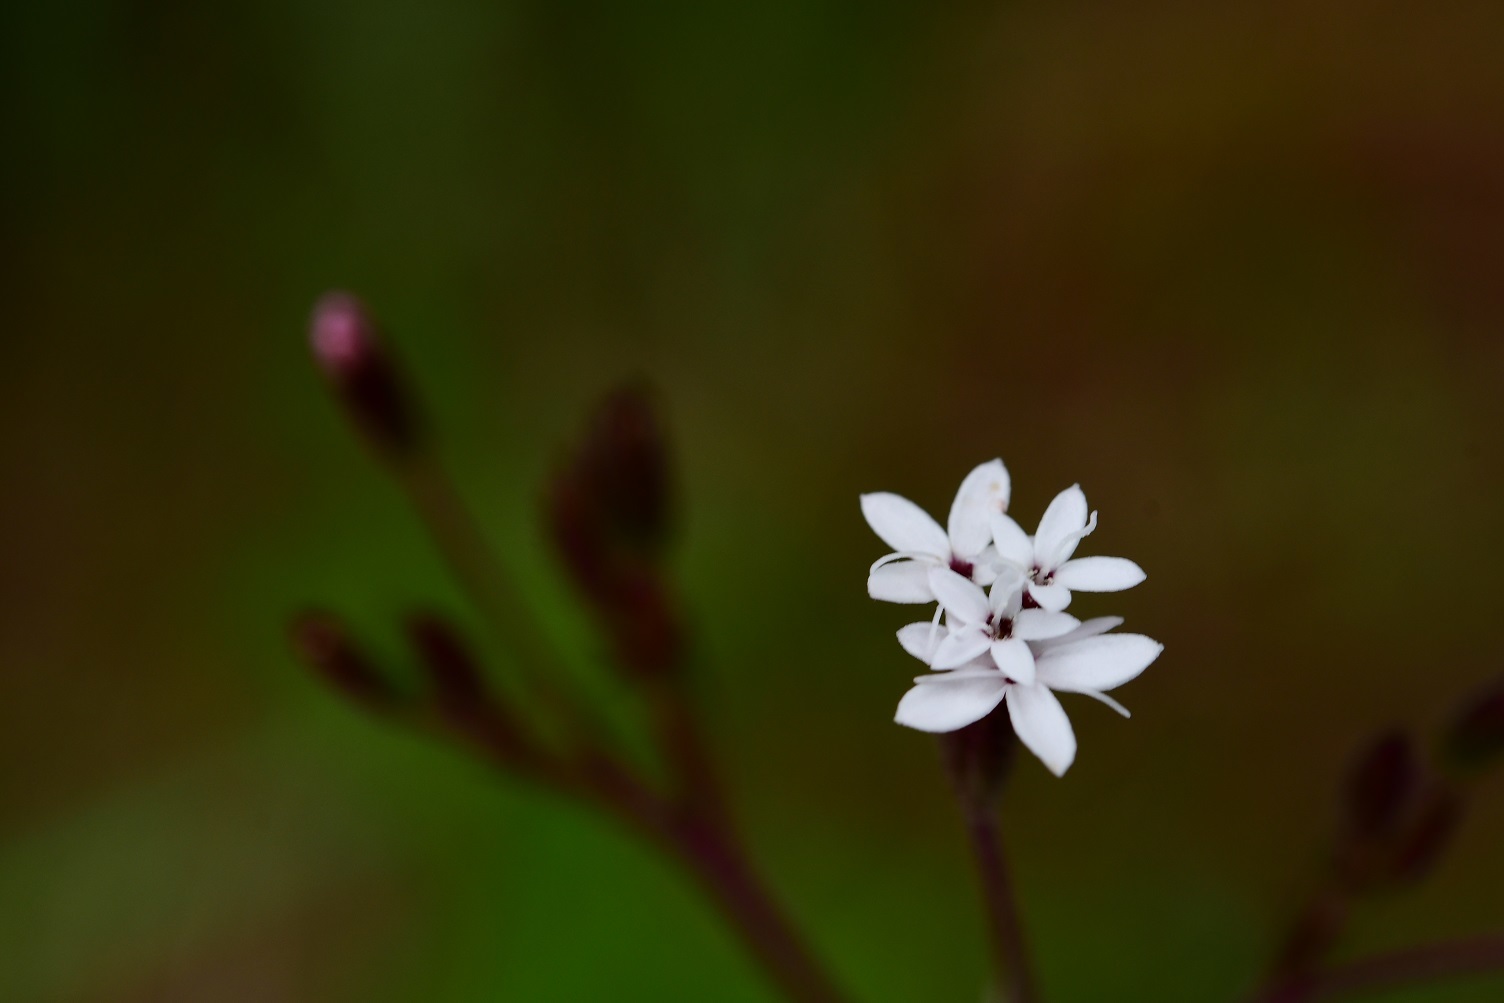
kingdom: Plantae
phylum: Tracheophyta
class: Magnoliopsida
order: Asterales
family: Asteraceae
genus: Stevia
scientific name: Stevia elatior
